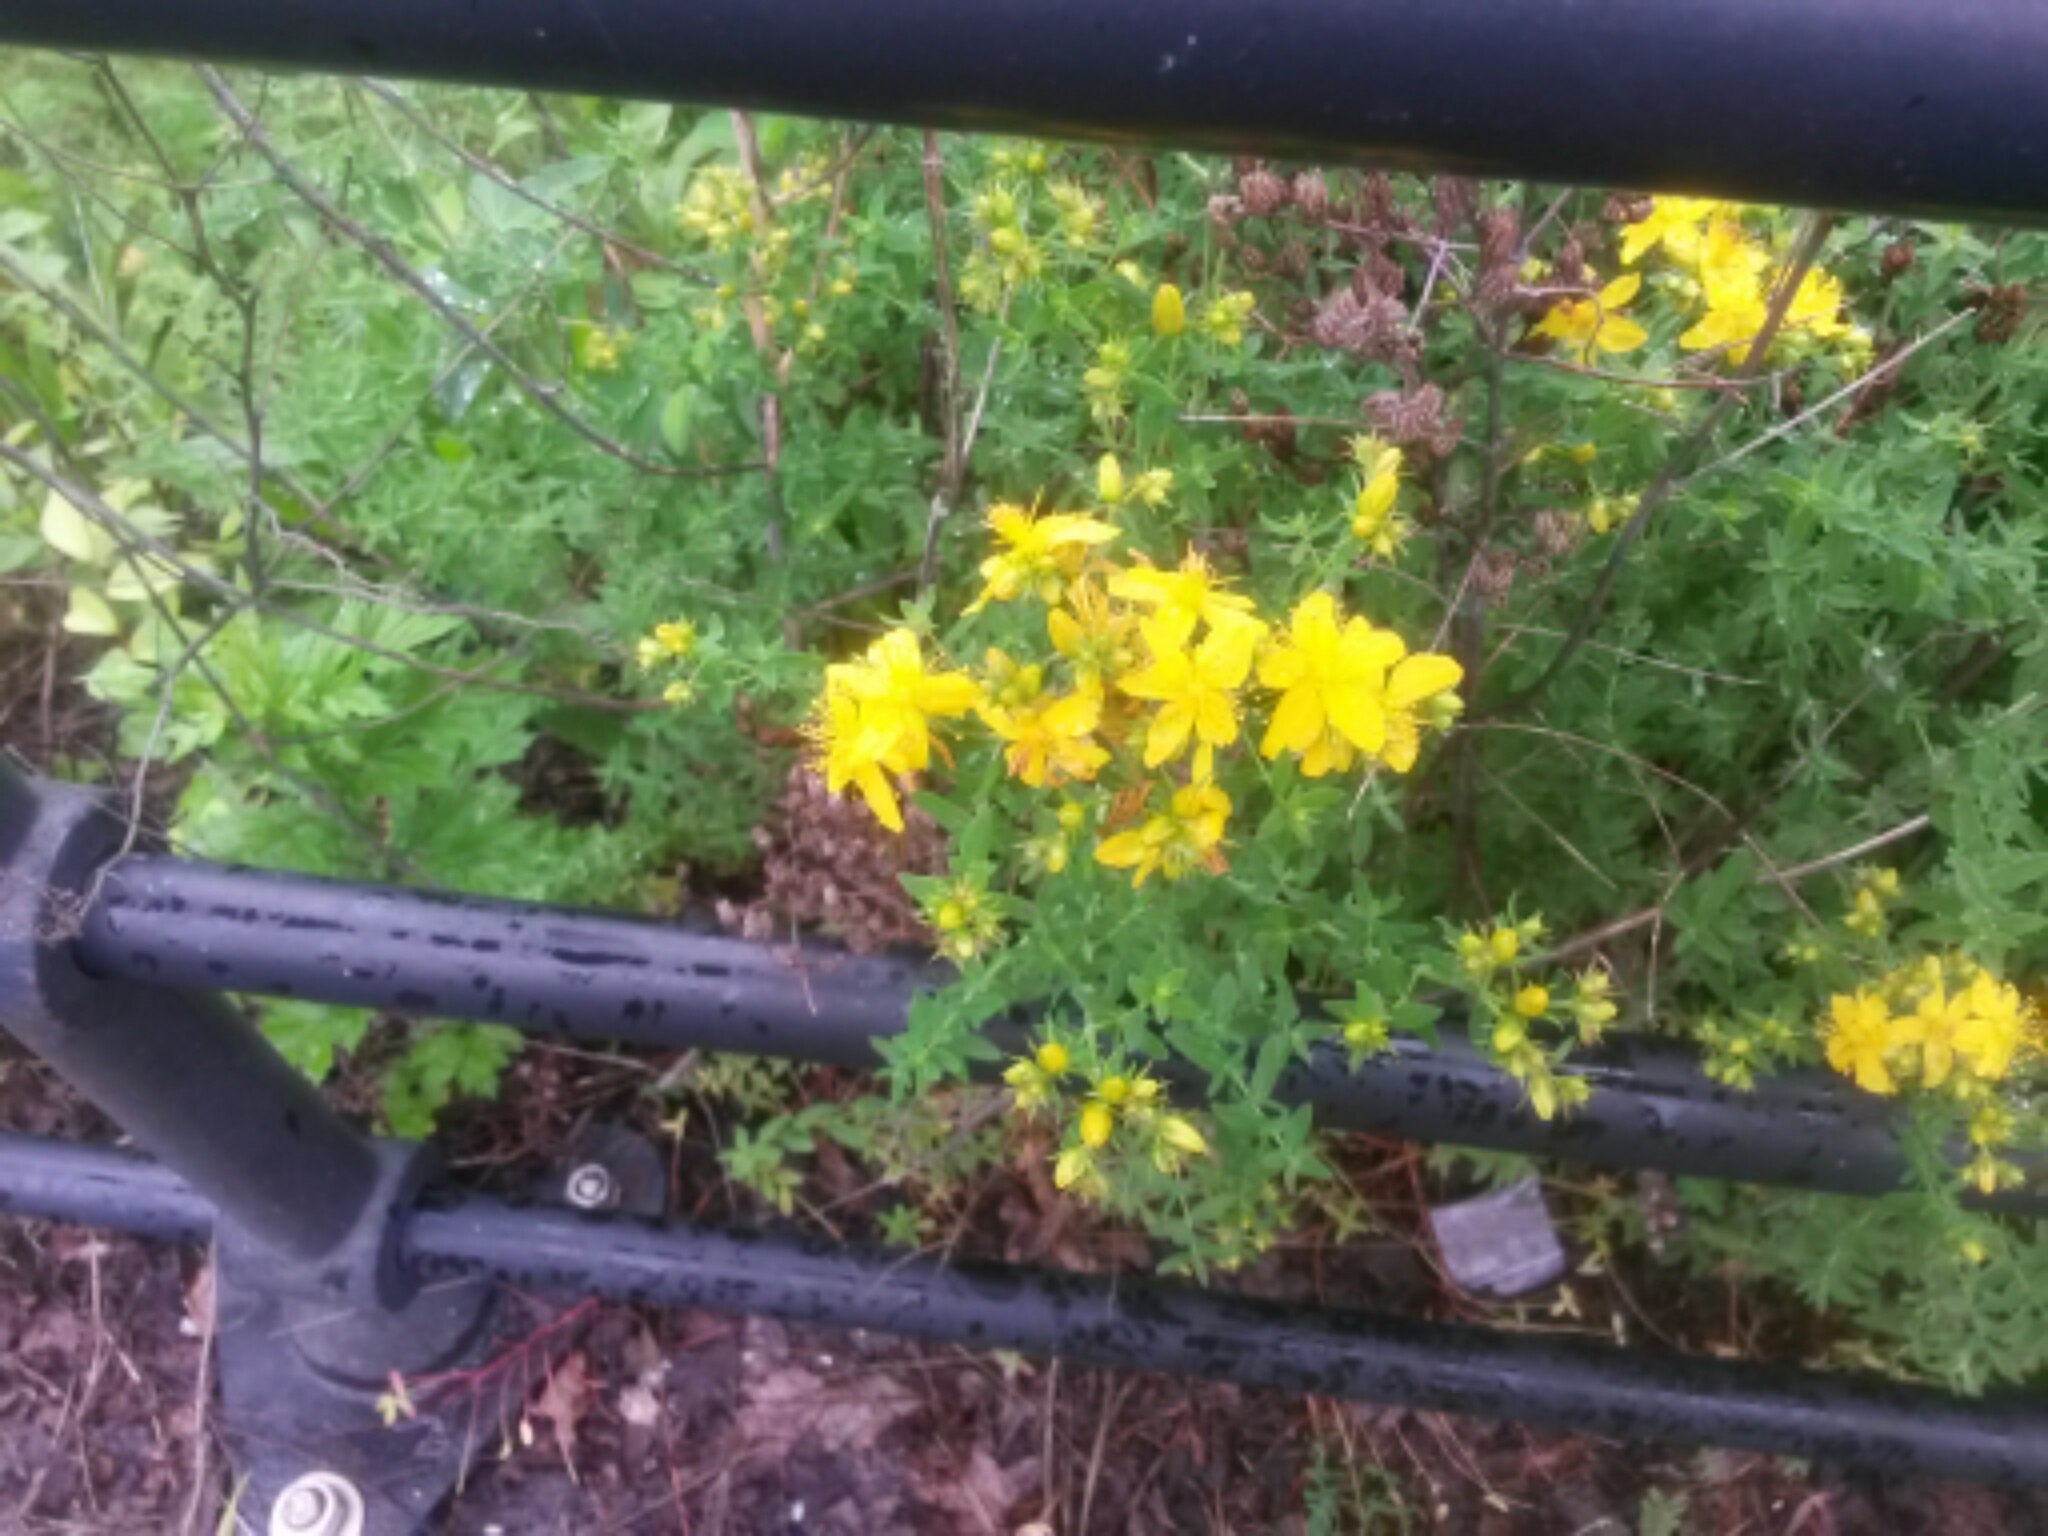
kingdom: Plantae
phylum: Tracheophyta
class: Magnoliopsida
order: Malpighiales
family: Hypericaceae
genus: Hypericum
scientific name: Hypericum perforatum
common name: Common st. johnswort
